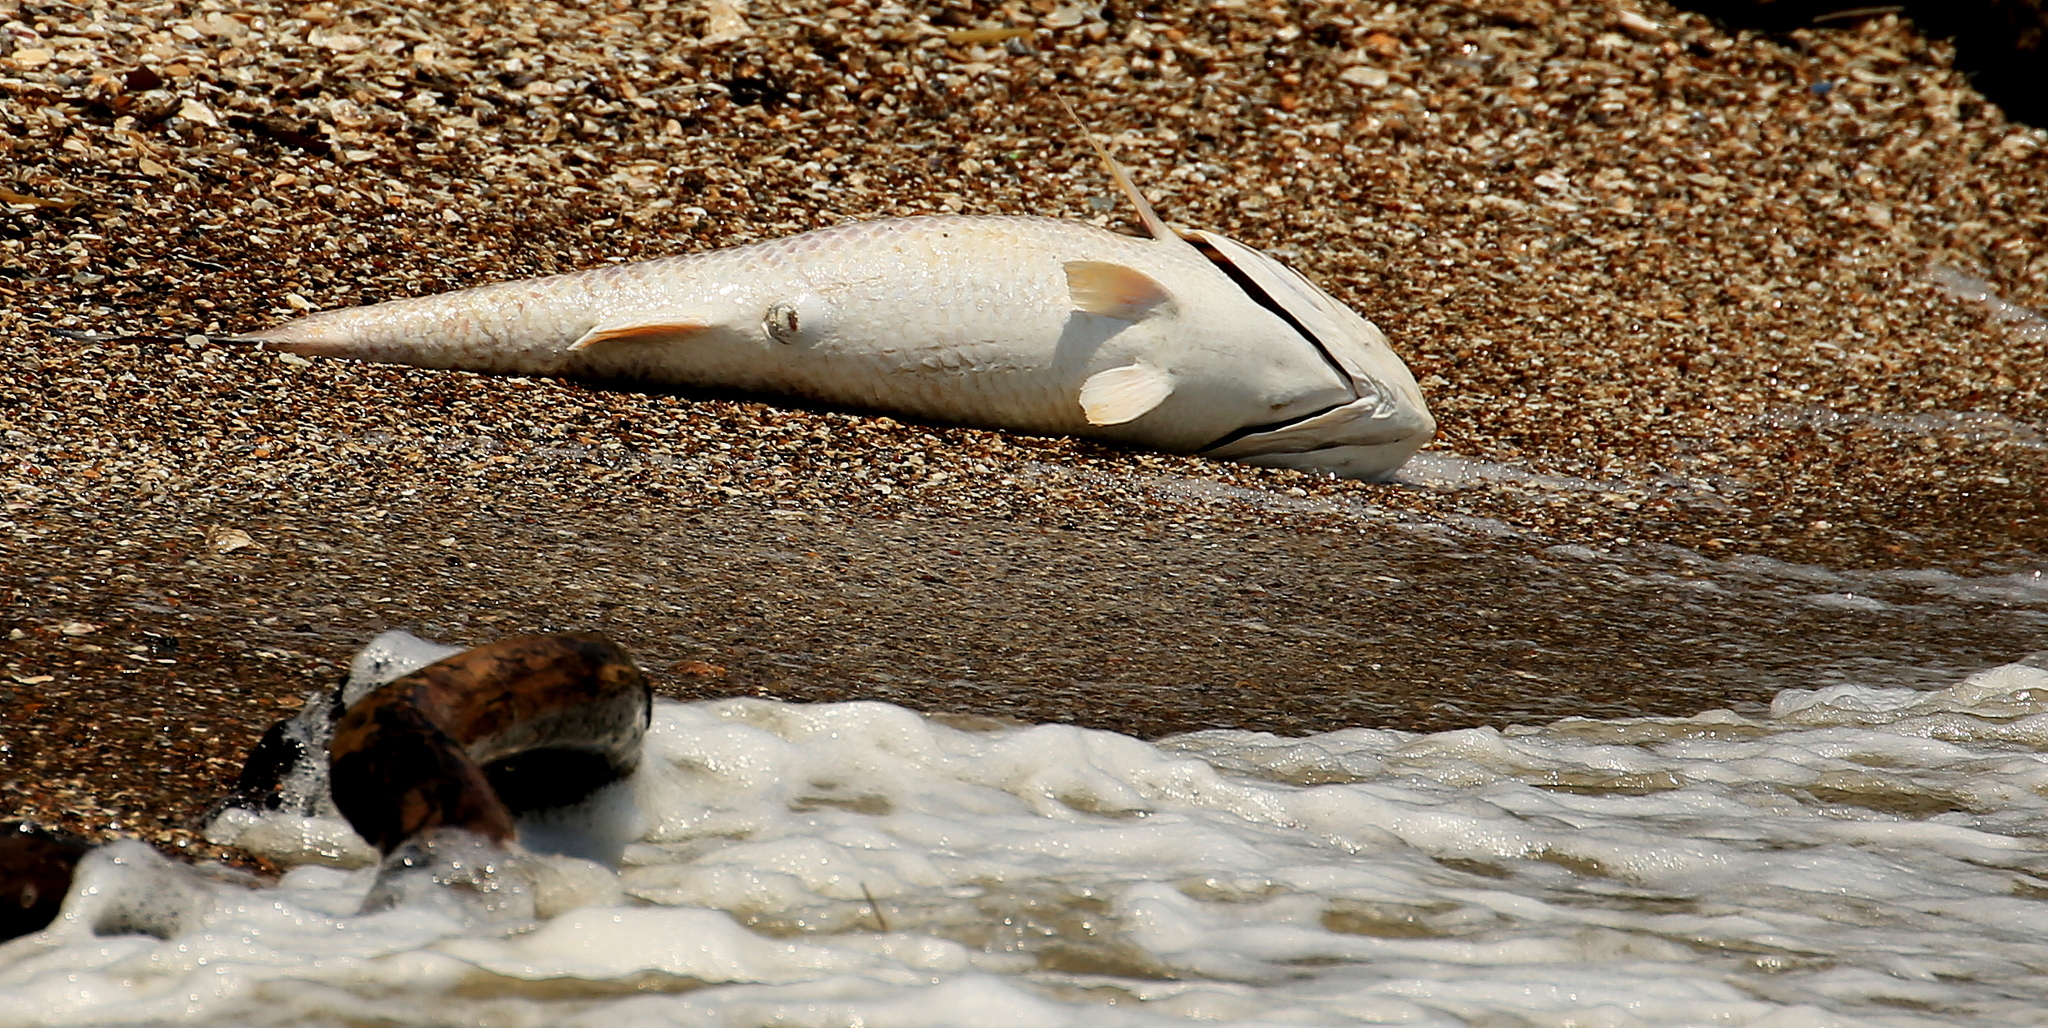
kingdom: Animalia
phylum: Chordata
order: Perciformes
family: Sciaenidae
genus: Sciaenops
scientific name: Sciaenops ocellatus
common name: Red drum
